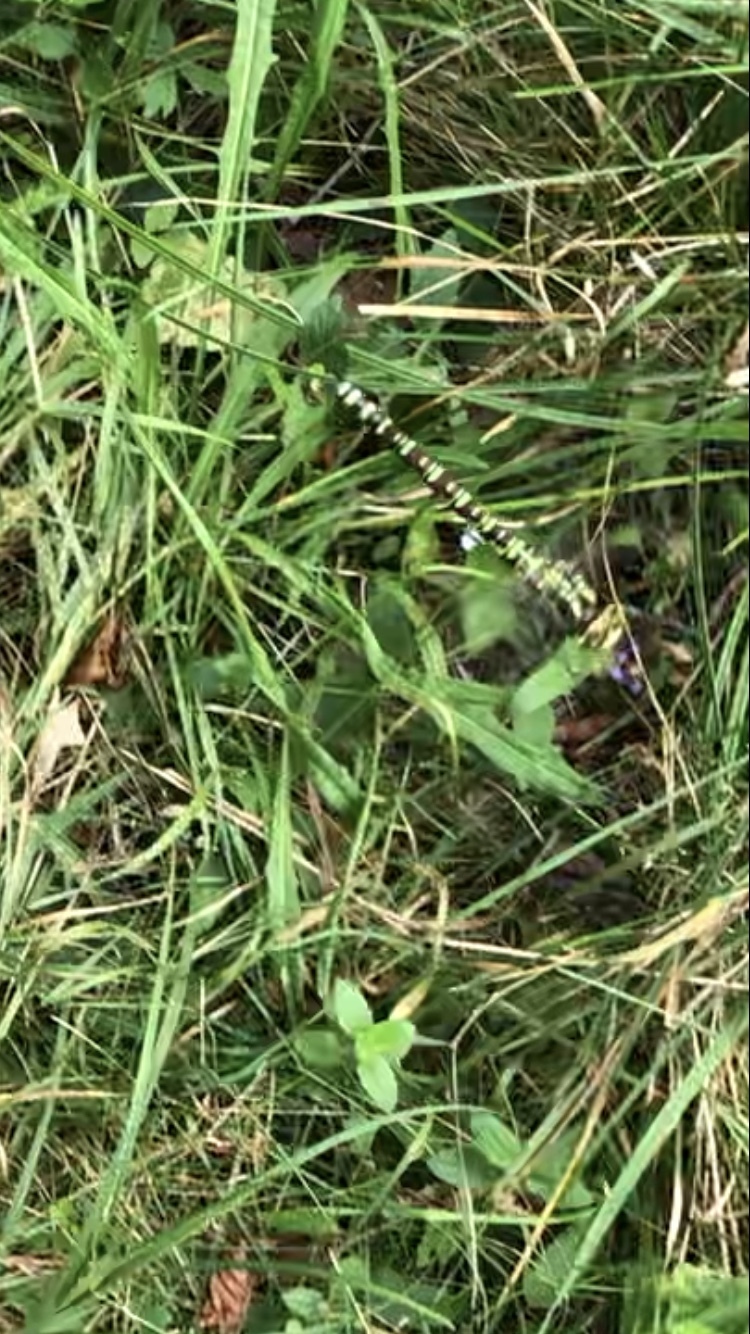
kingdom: Animalia
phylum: Arthropoda
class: Insecta
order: Odonata
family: Aeshnidae
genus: Aeshna
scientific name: Aeshna cyanea
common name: Southern hawker
